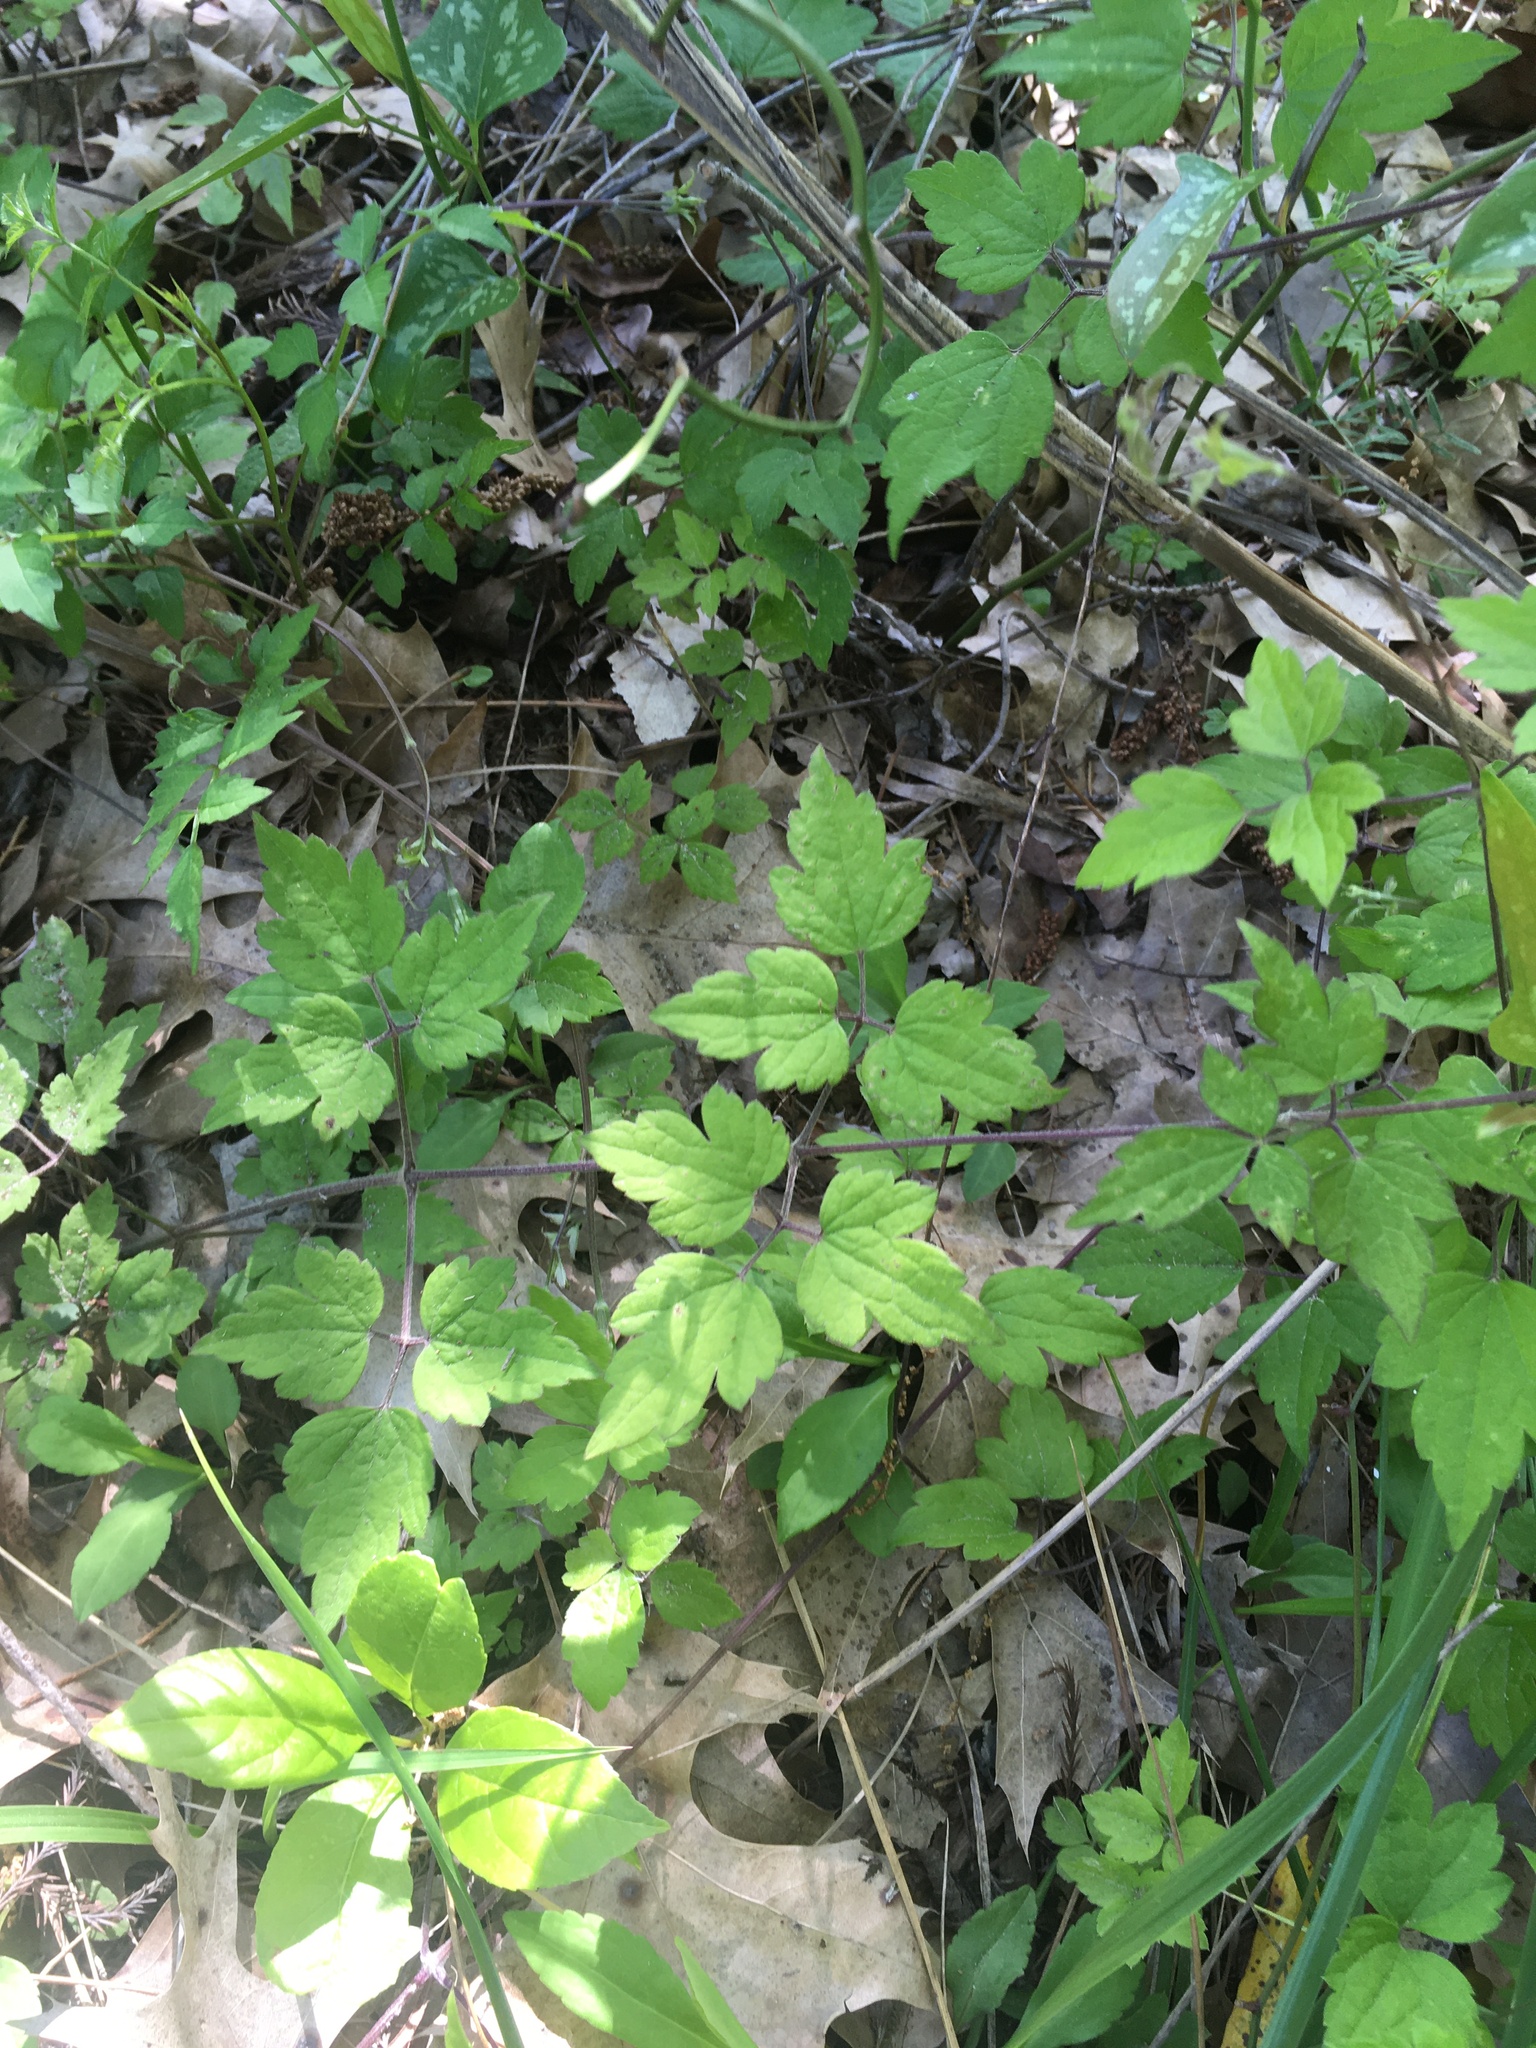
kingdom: Plantae
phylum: Tracheophyta
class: Magnoliopsida
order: Ranunculales
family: Ranunculaceae
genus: Clematis
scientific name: Clematis catesbyana
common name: Virgin's bower
